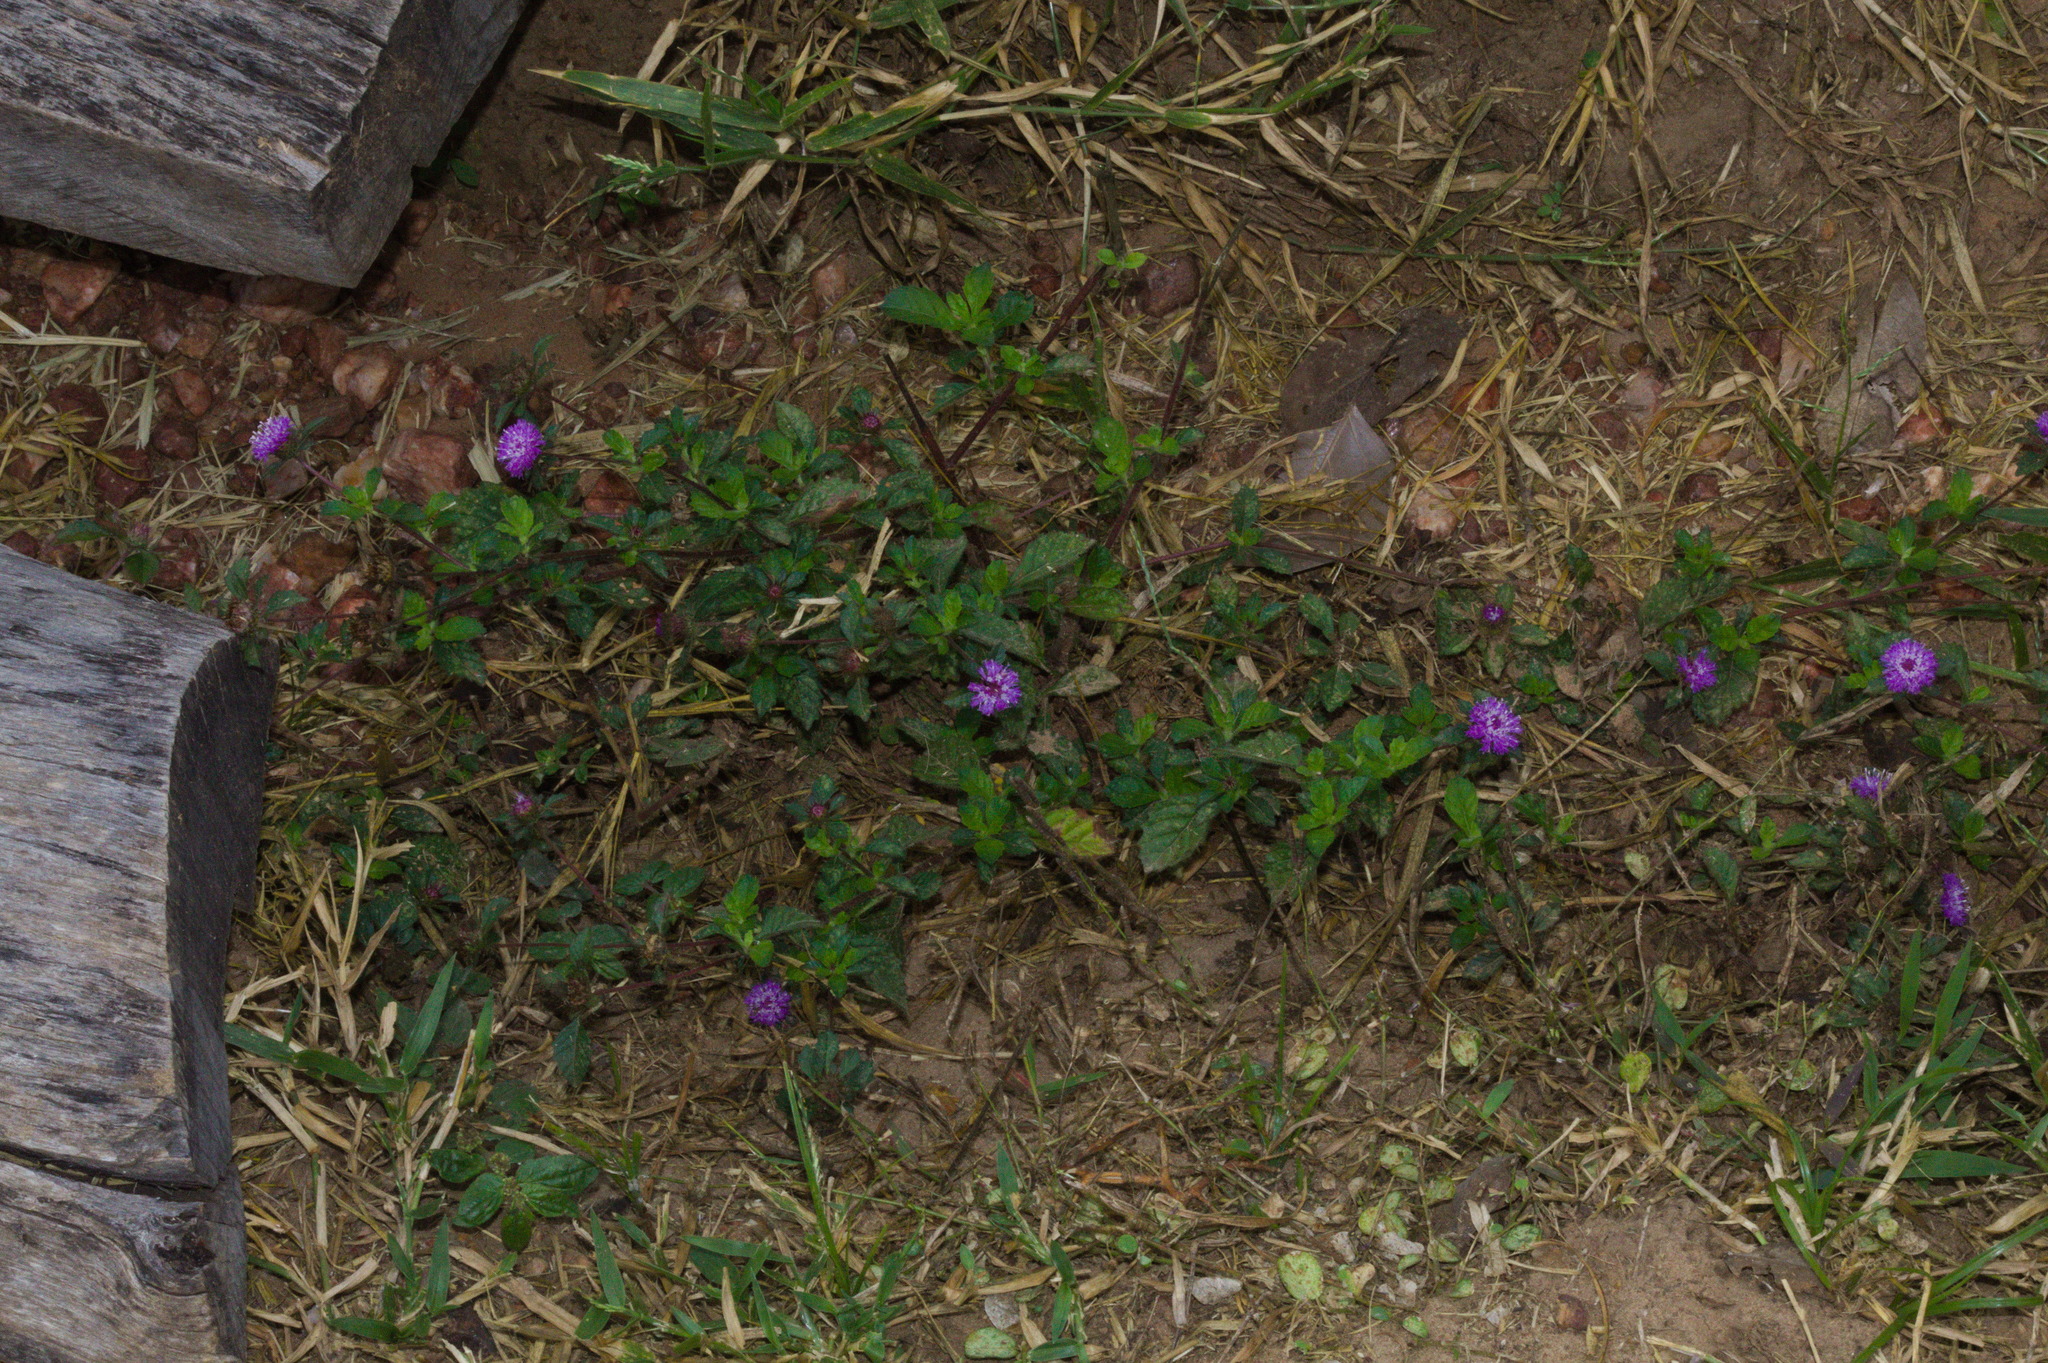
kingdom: Plantae
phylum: Tracheophyta
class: Magnoliopsida
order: Asterales
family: Asteraceae
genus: Centratherum
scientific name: Centratherum punctatum
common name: Larkdaisy
